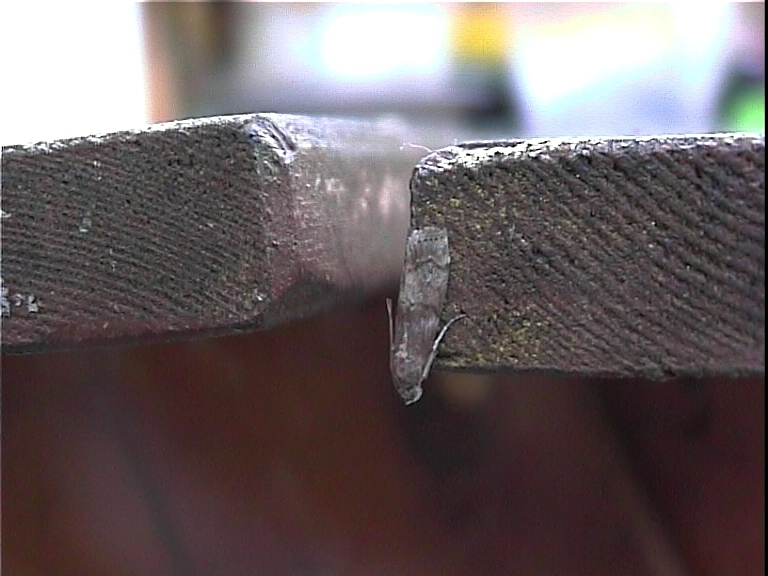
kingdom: Animalia
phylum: Arthropoda
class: Insecta
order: Lepidoptera
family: Pyralidae
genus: Phycita
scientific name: Phycita roborella
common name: Dotted oak knot-horn
